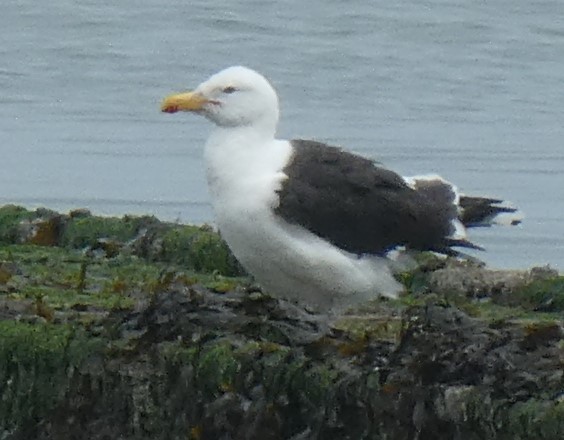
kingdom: Animalia
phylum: Chordata
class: Aves
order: Charadriiformes
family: Laridae
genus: Larus
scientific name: Larus marinus
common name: Great black-backed gull
